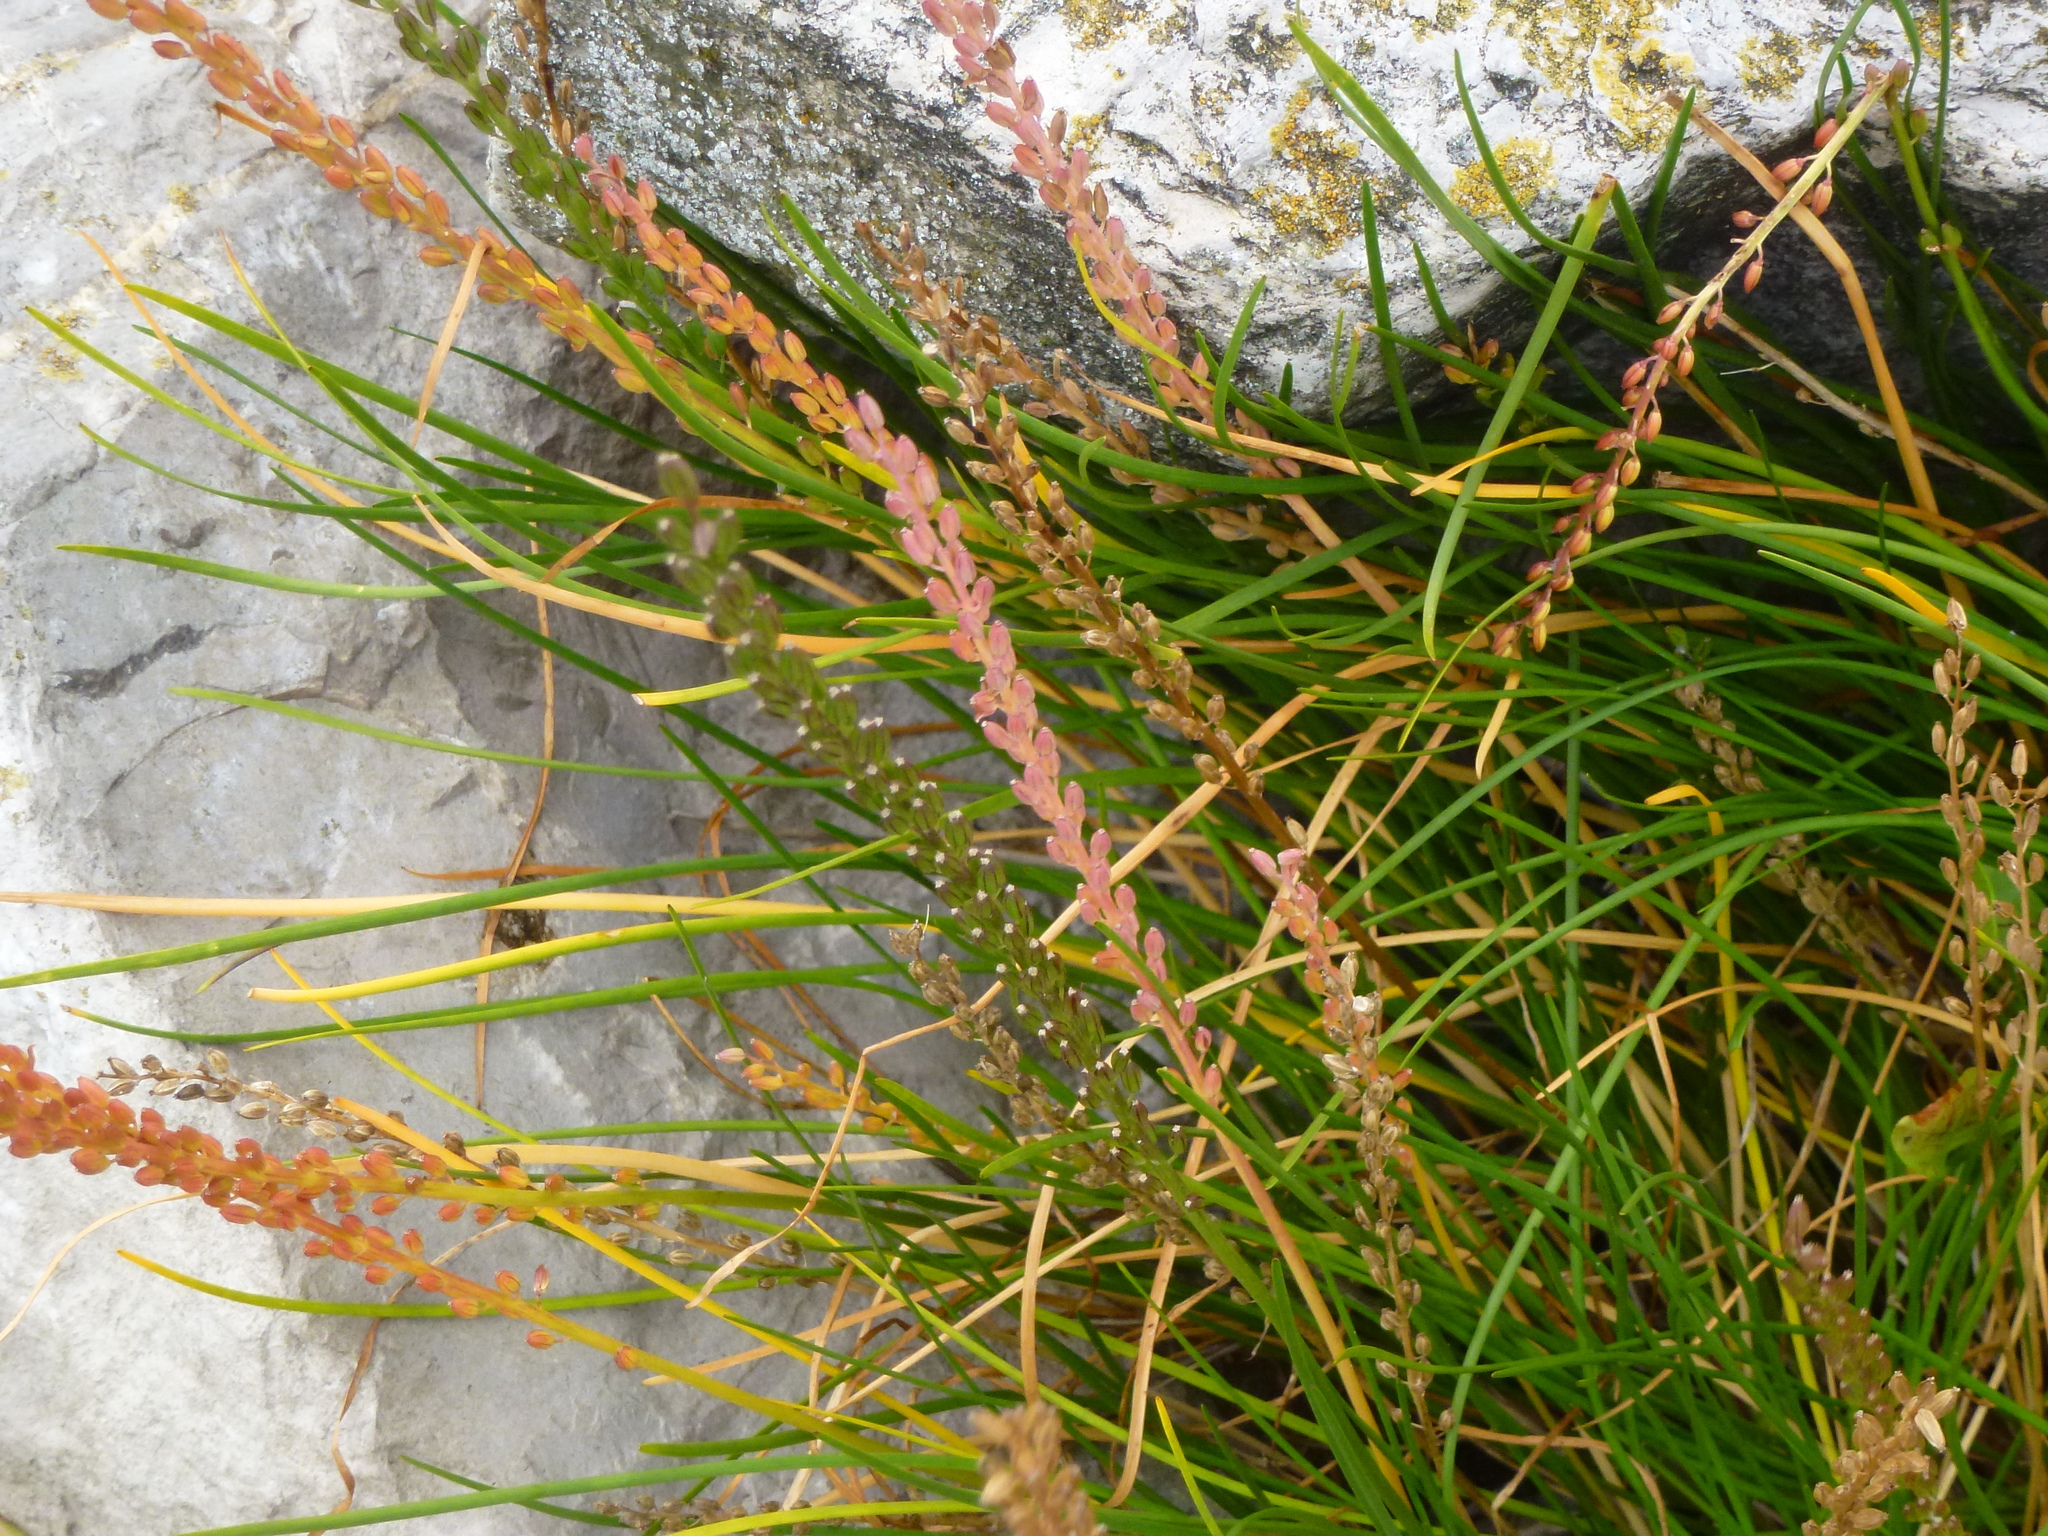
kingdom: Plantae
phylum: Tracheophyta
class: Liliopsida
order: Alismatales
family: Juncaginaceae
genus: Triglochin
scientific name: Triglochin maritima
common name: Sea arrowgrass
